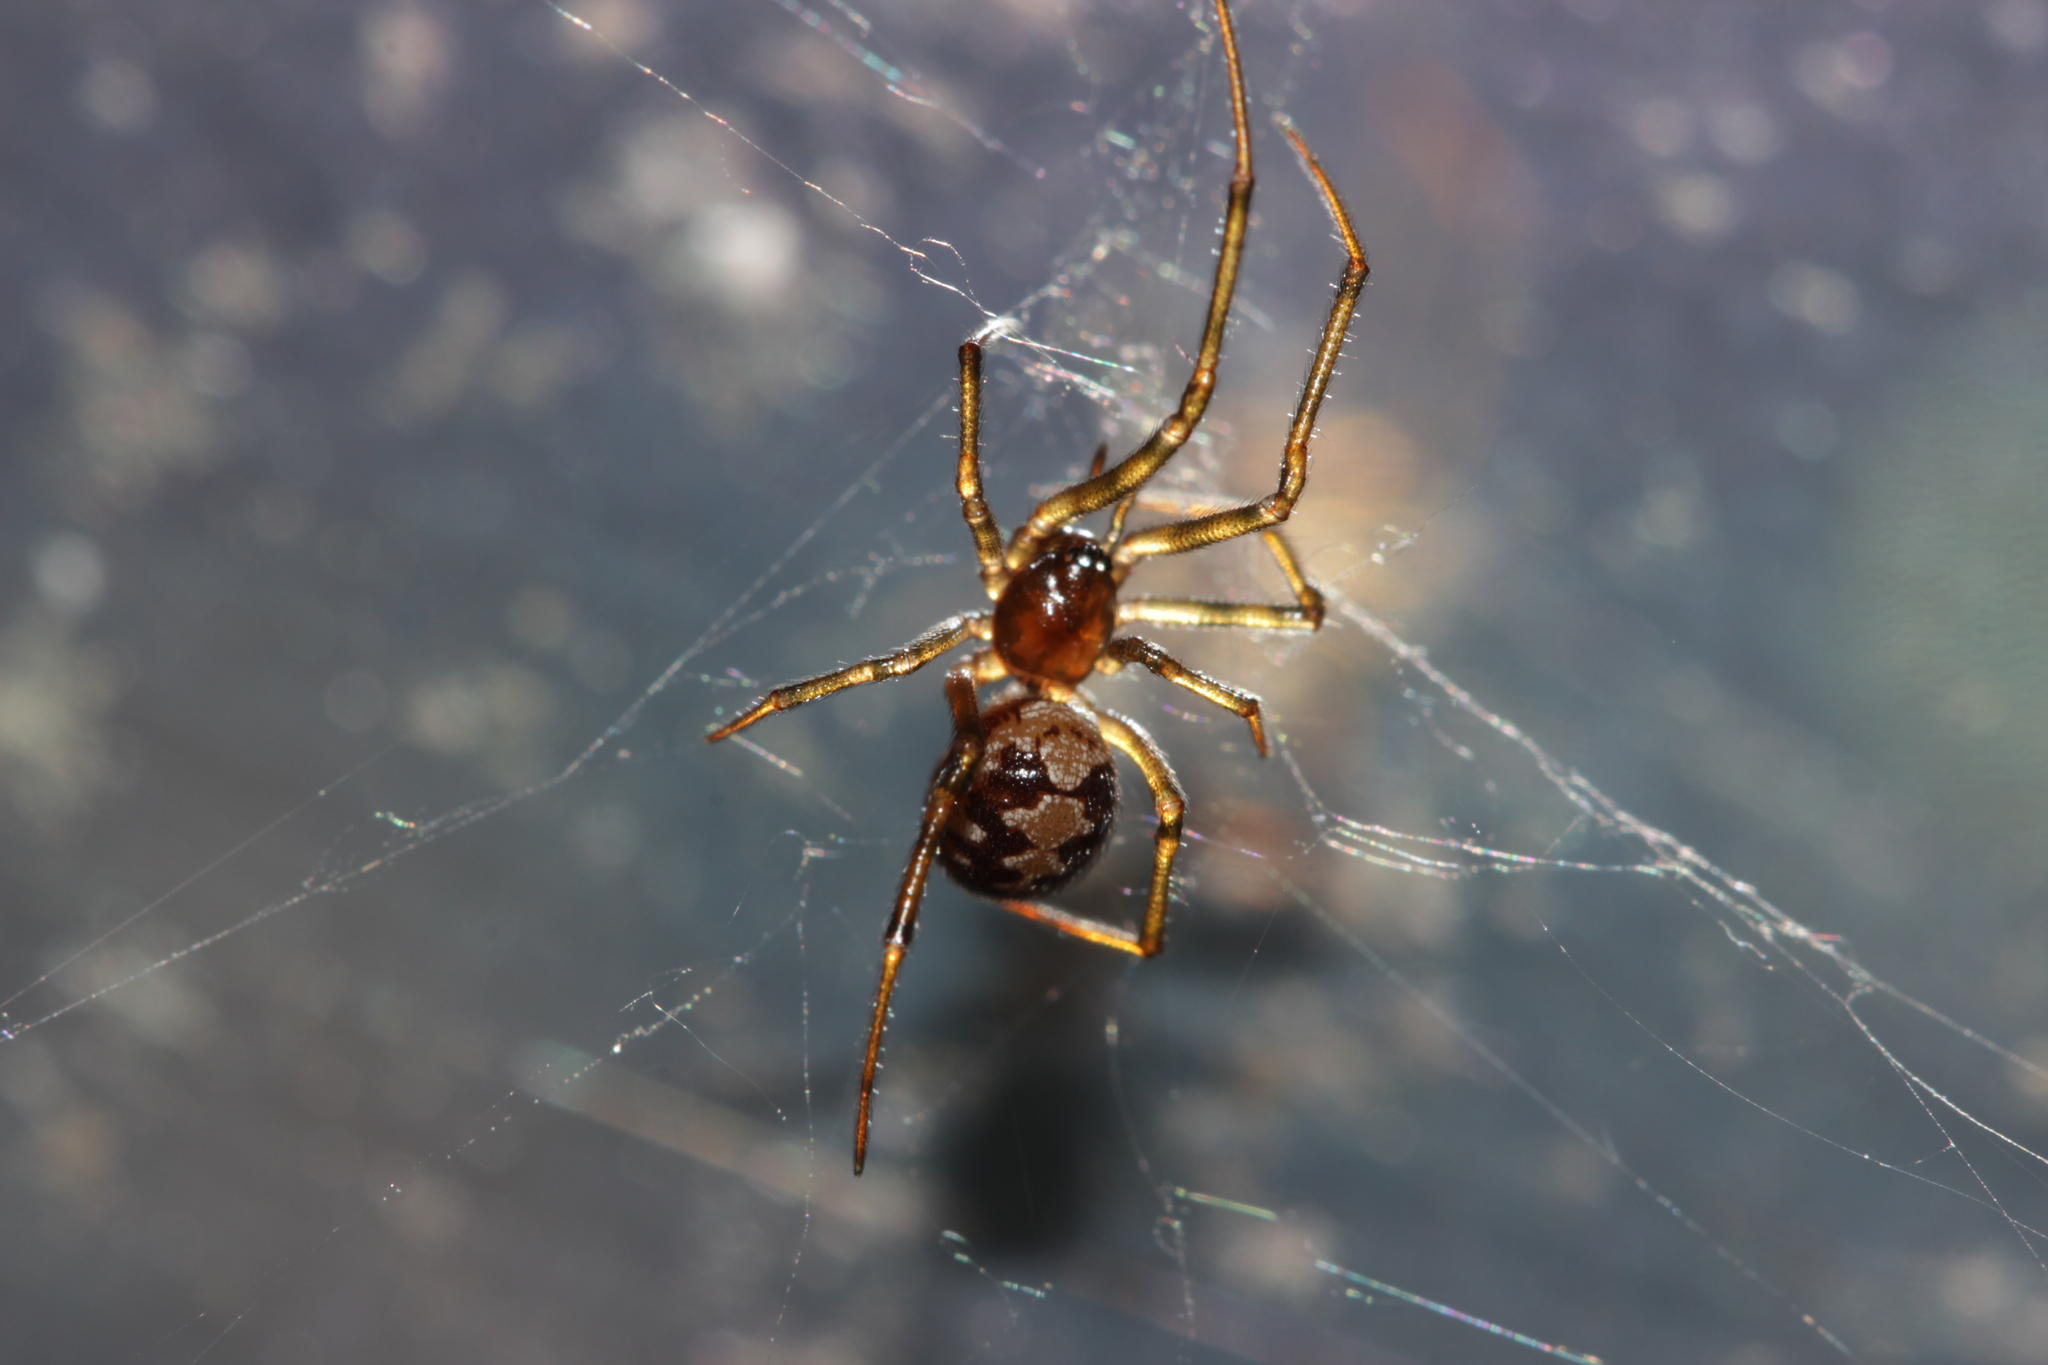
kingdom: Animalia
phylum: Arthropoda
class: Arachnida
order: Araneae
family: Theridiidae
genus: Steatoda
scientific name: Steatoda triangulosa
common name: Triangulate bud spider
